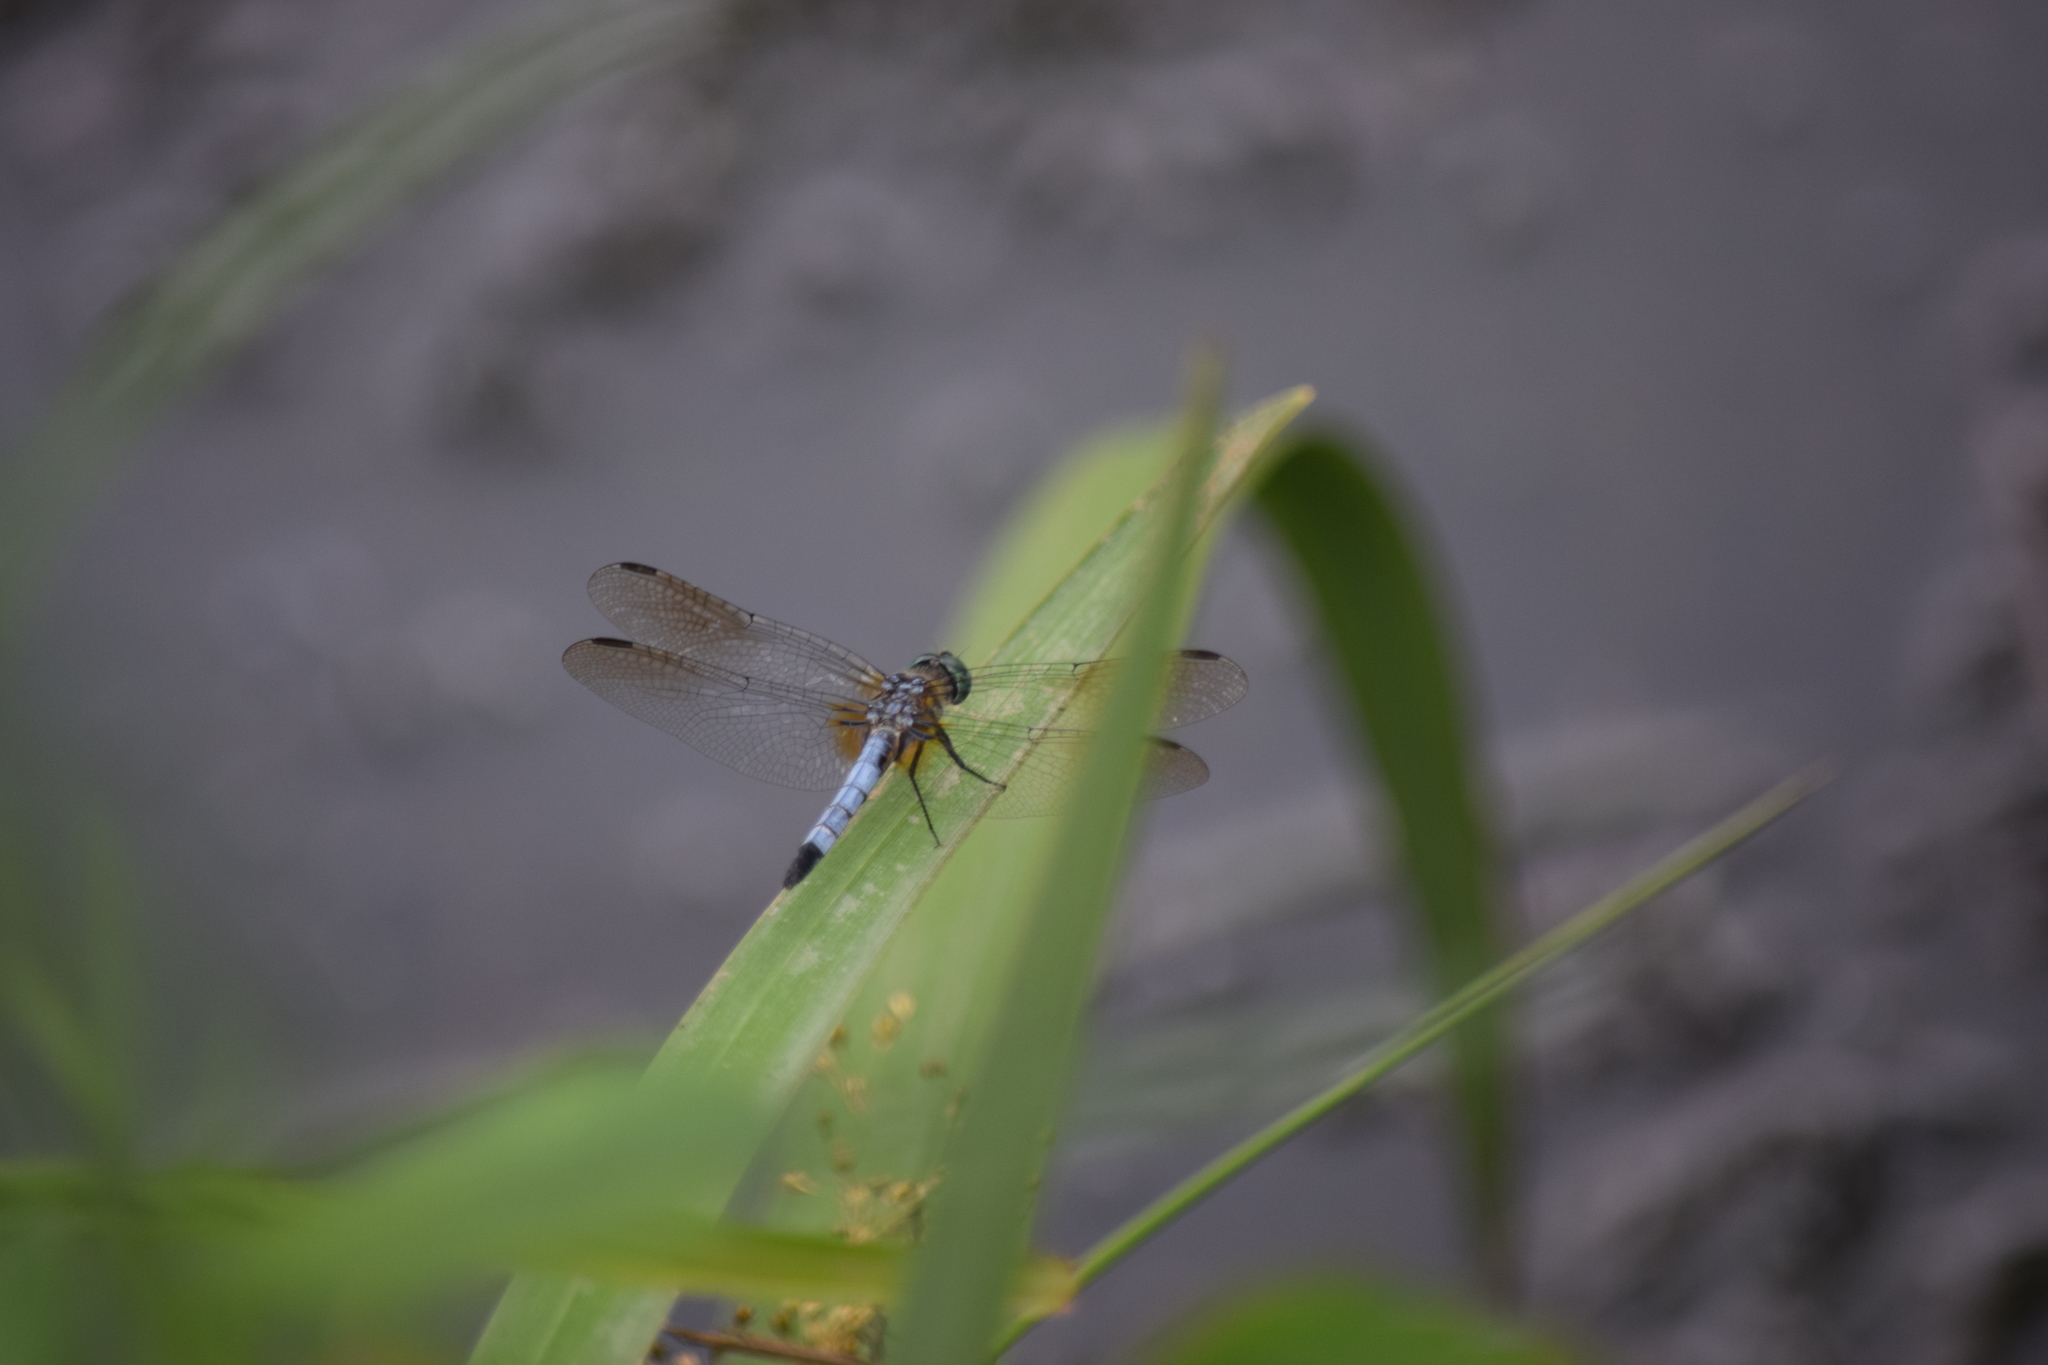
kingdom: Animalia
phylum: Arthropoda
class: Insecta
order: Odonata
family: Libellulidae
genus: Pachydiplax
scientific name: Pachydiplax longipennis
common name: Blue dasher
